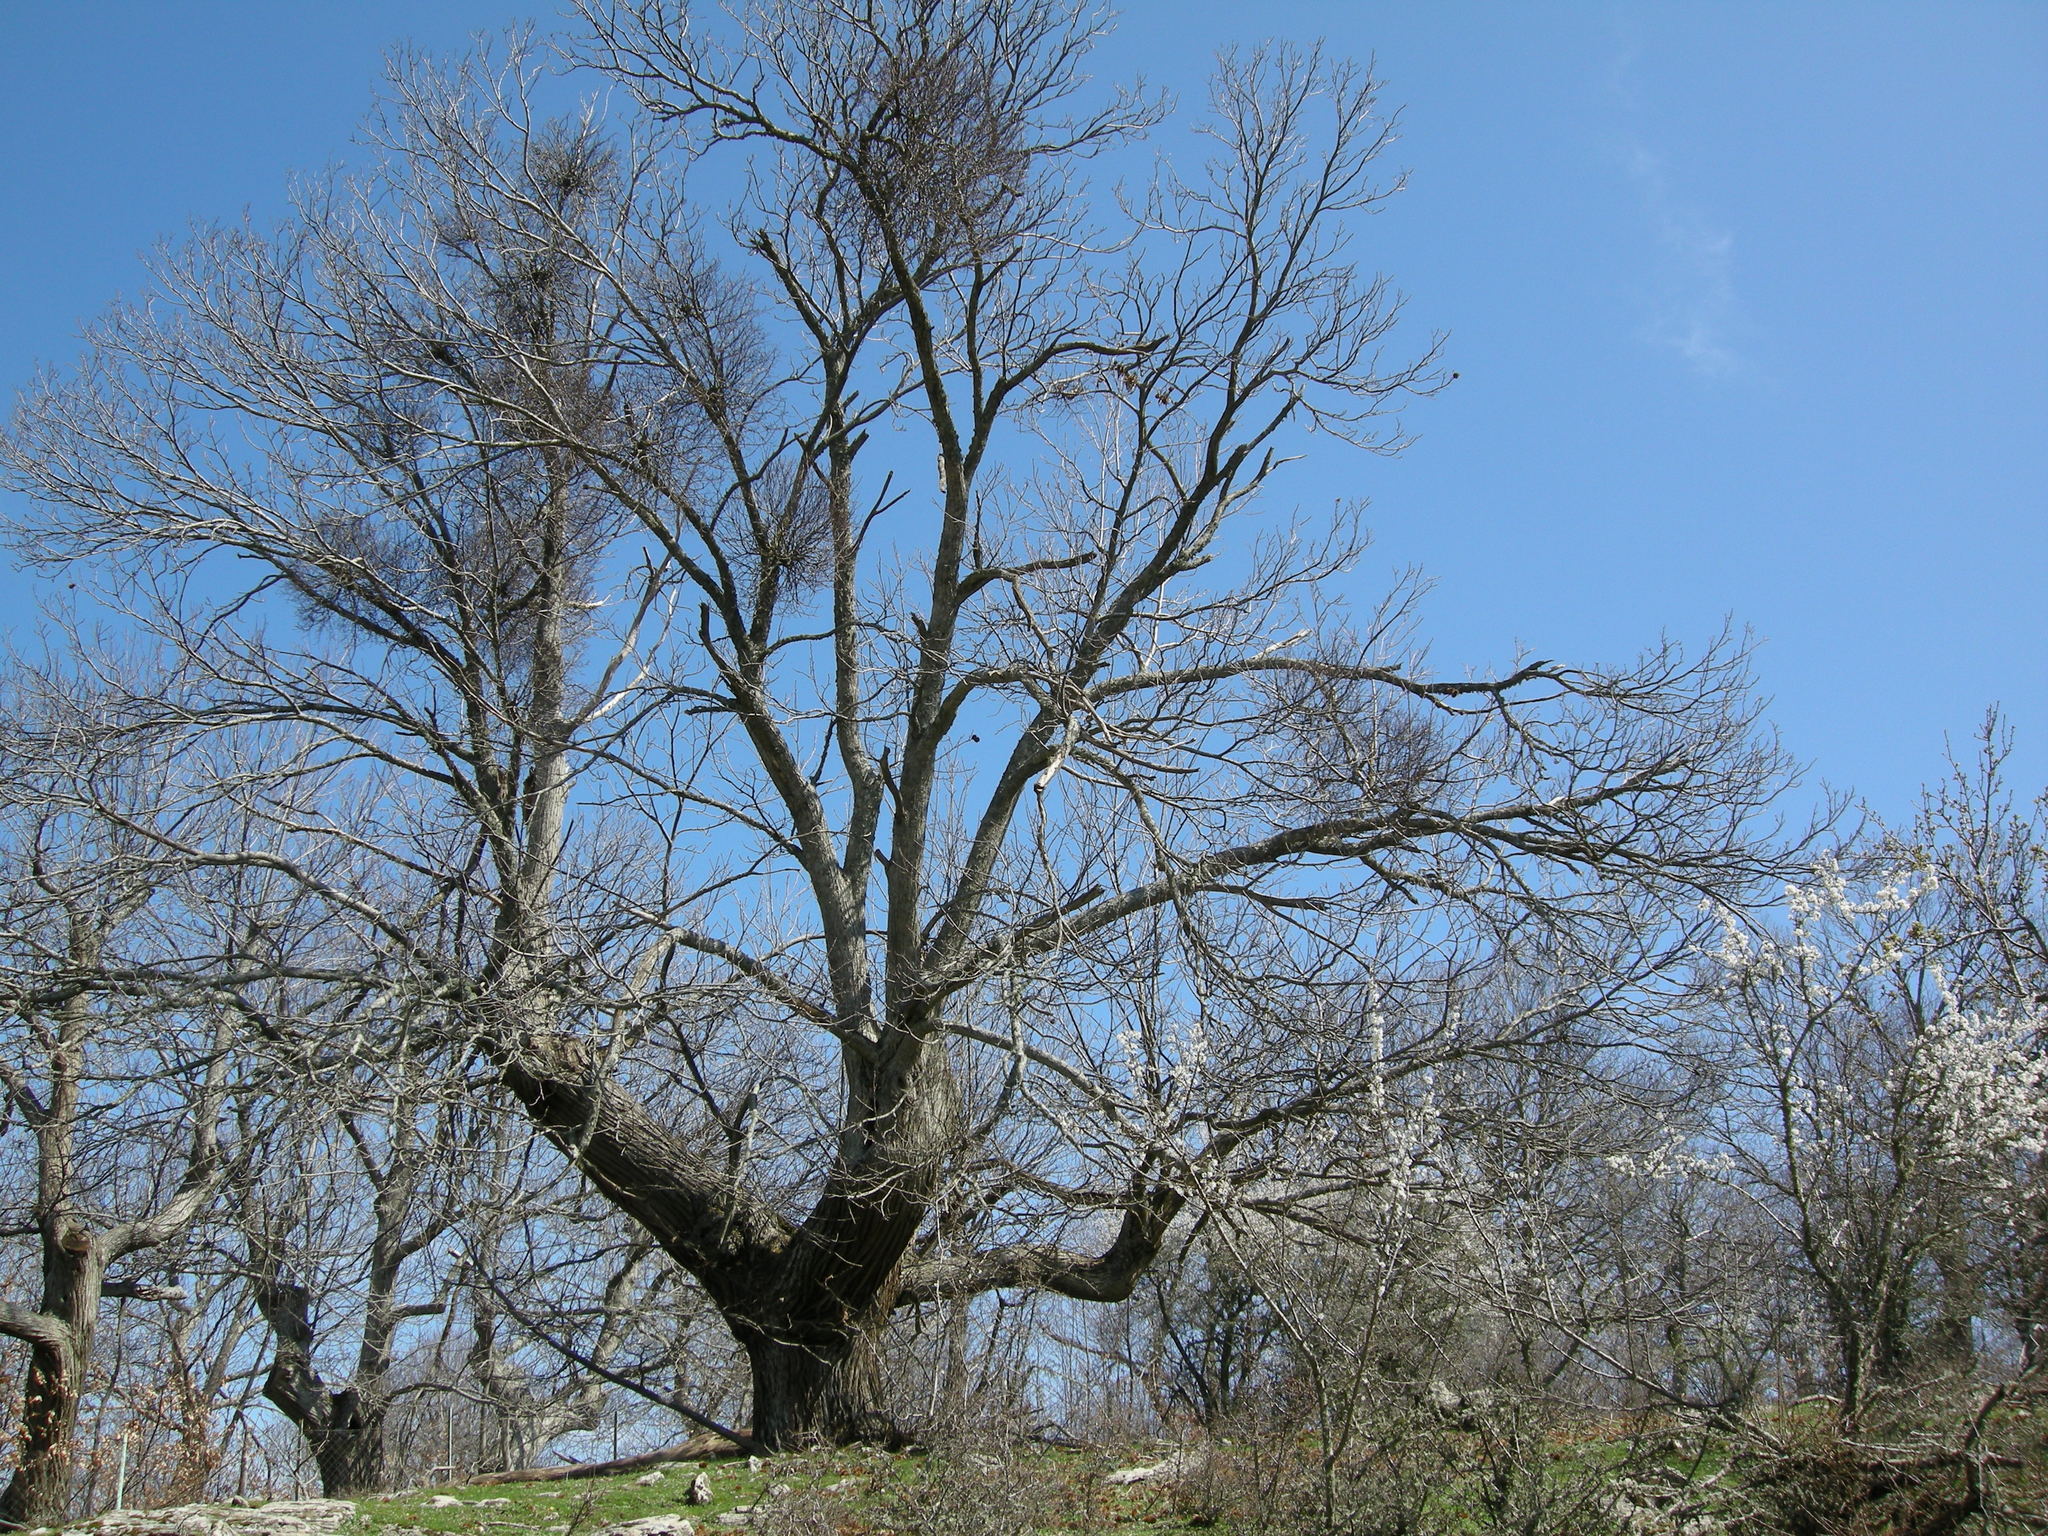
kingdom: Plantae
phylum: Tracheophyta
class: Magnoliopsida
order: Fagales
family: Fagaceae
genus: Castanea
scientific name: Castanea sativa
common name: Sweet chestnut
